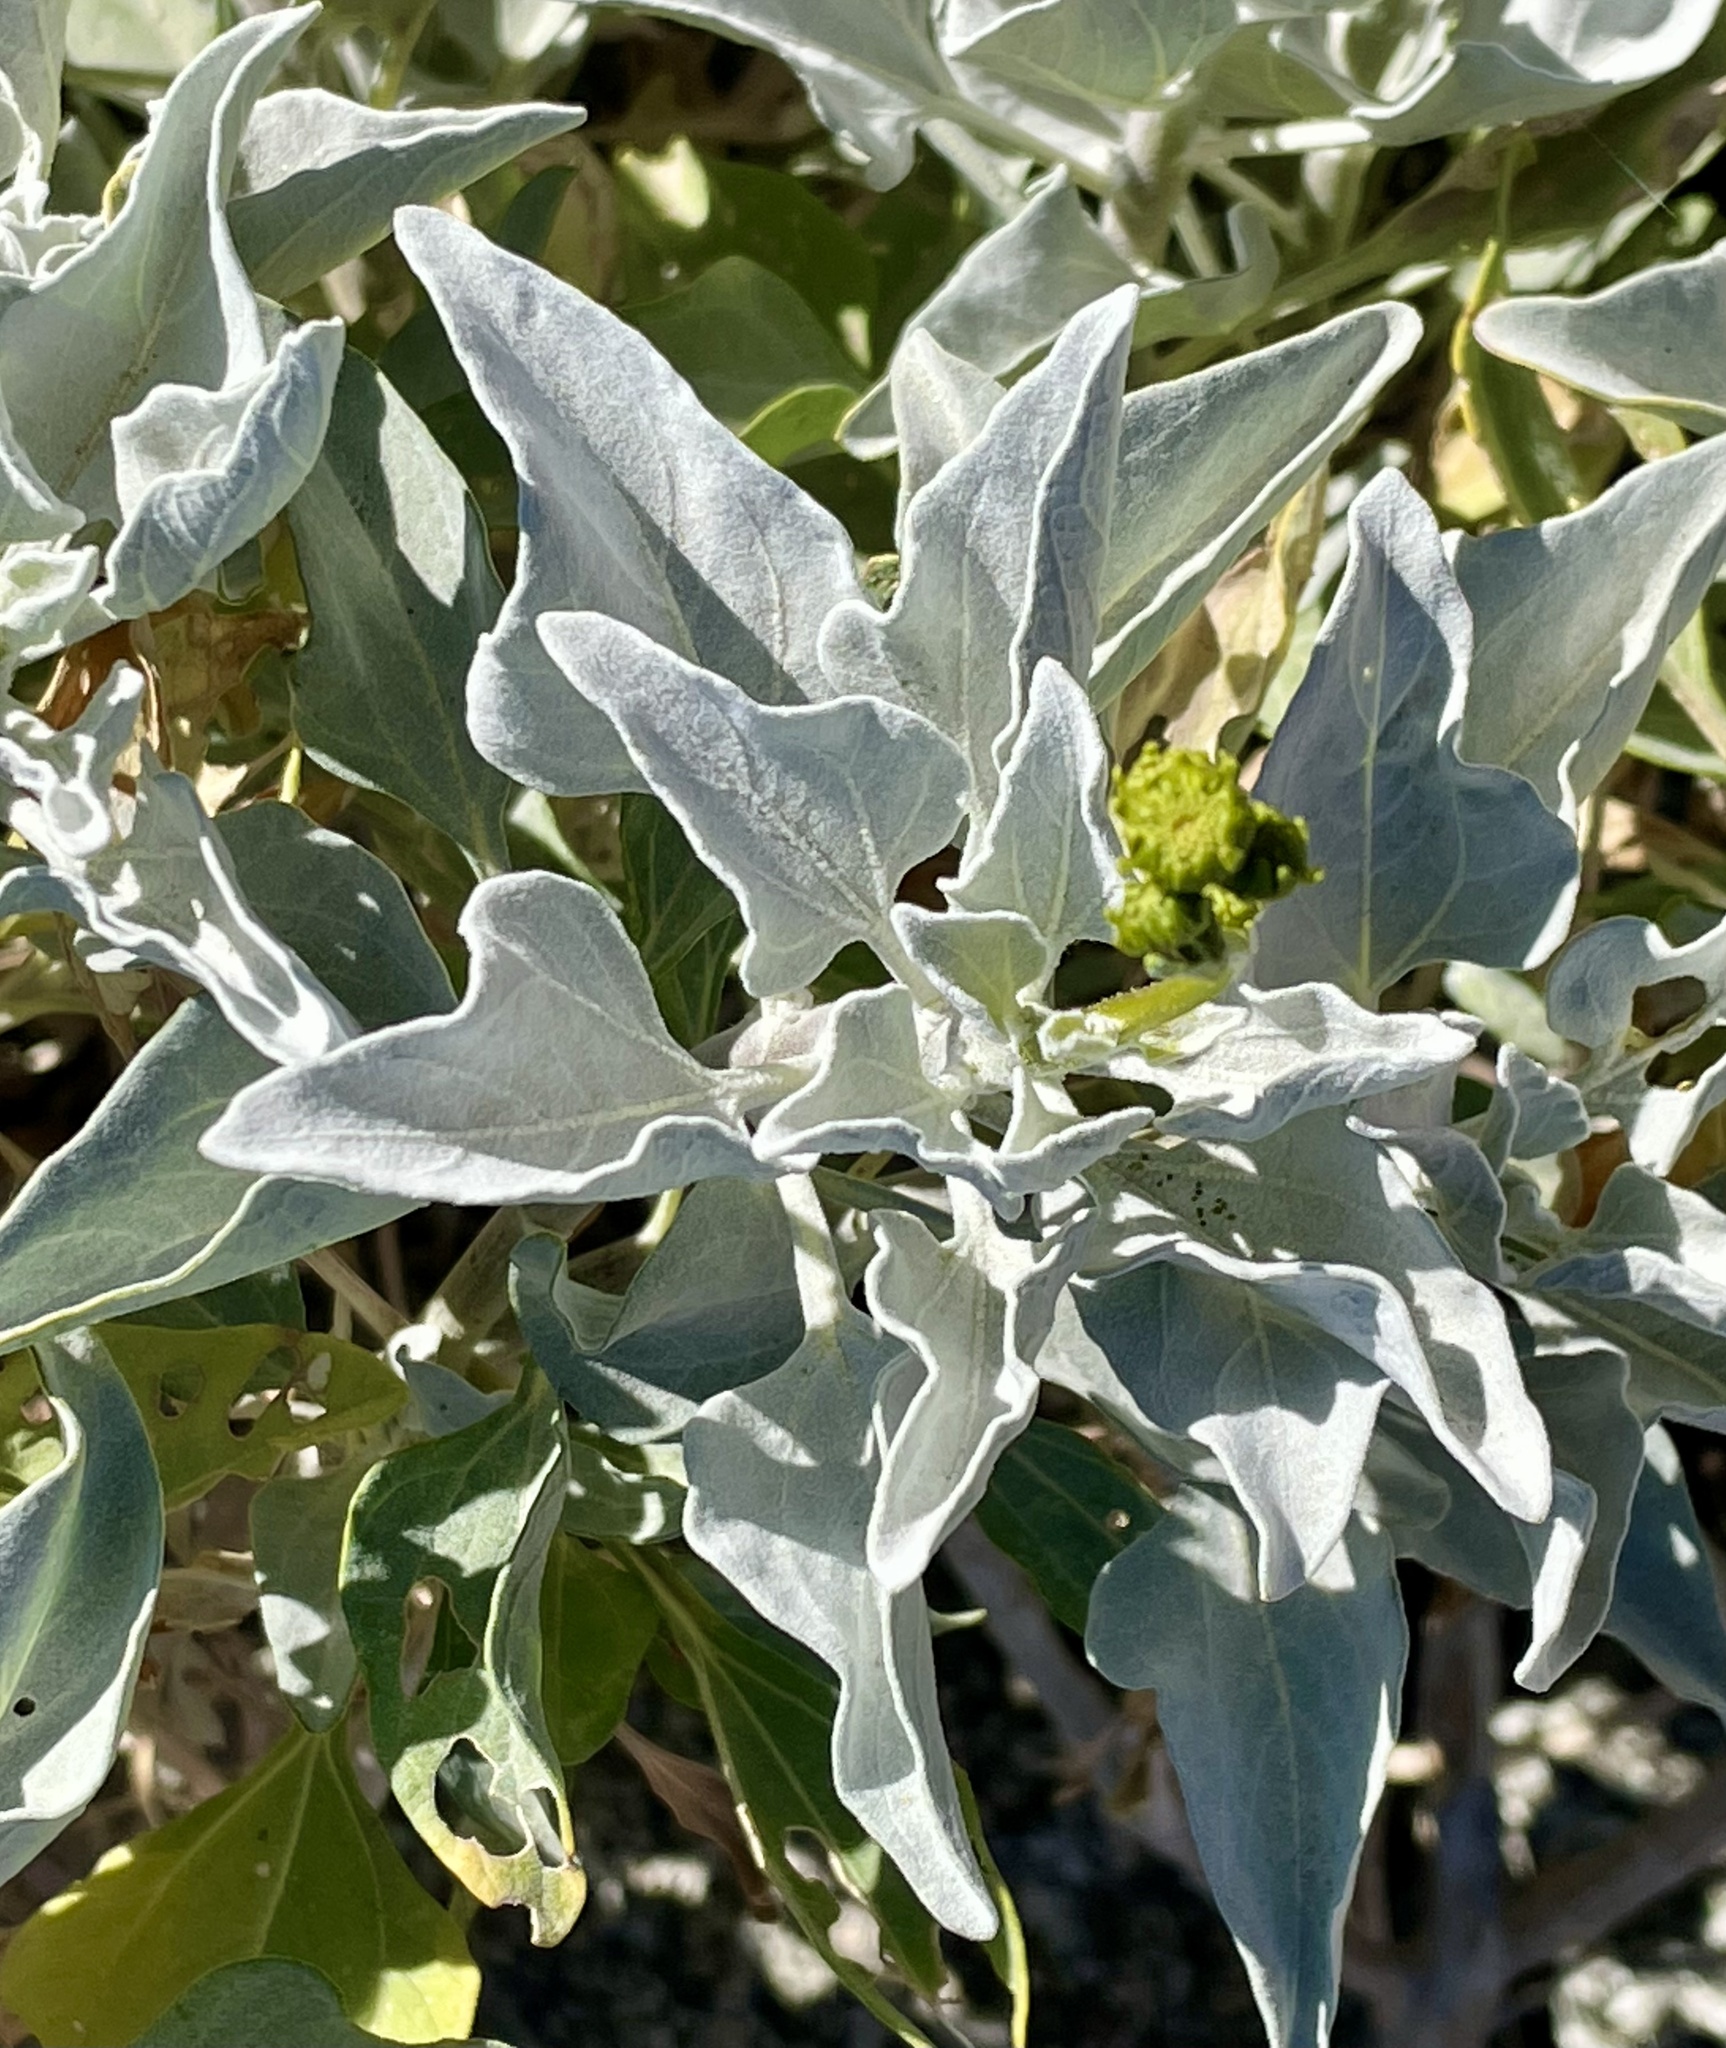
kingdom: Plantae
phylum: Tracheophyta
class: Magnoliopsida
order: Asterales
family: Asteraceae
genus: Encelia
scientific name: Encelia farinosa
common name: Brittlebush
